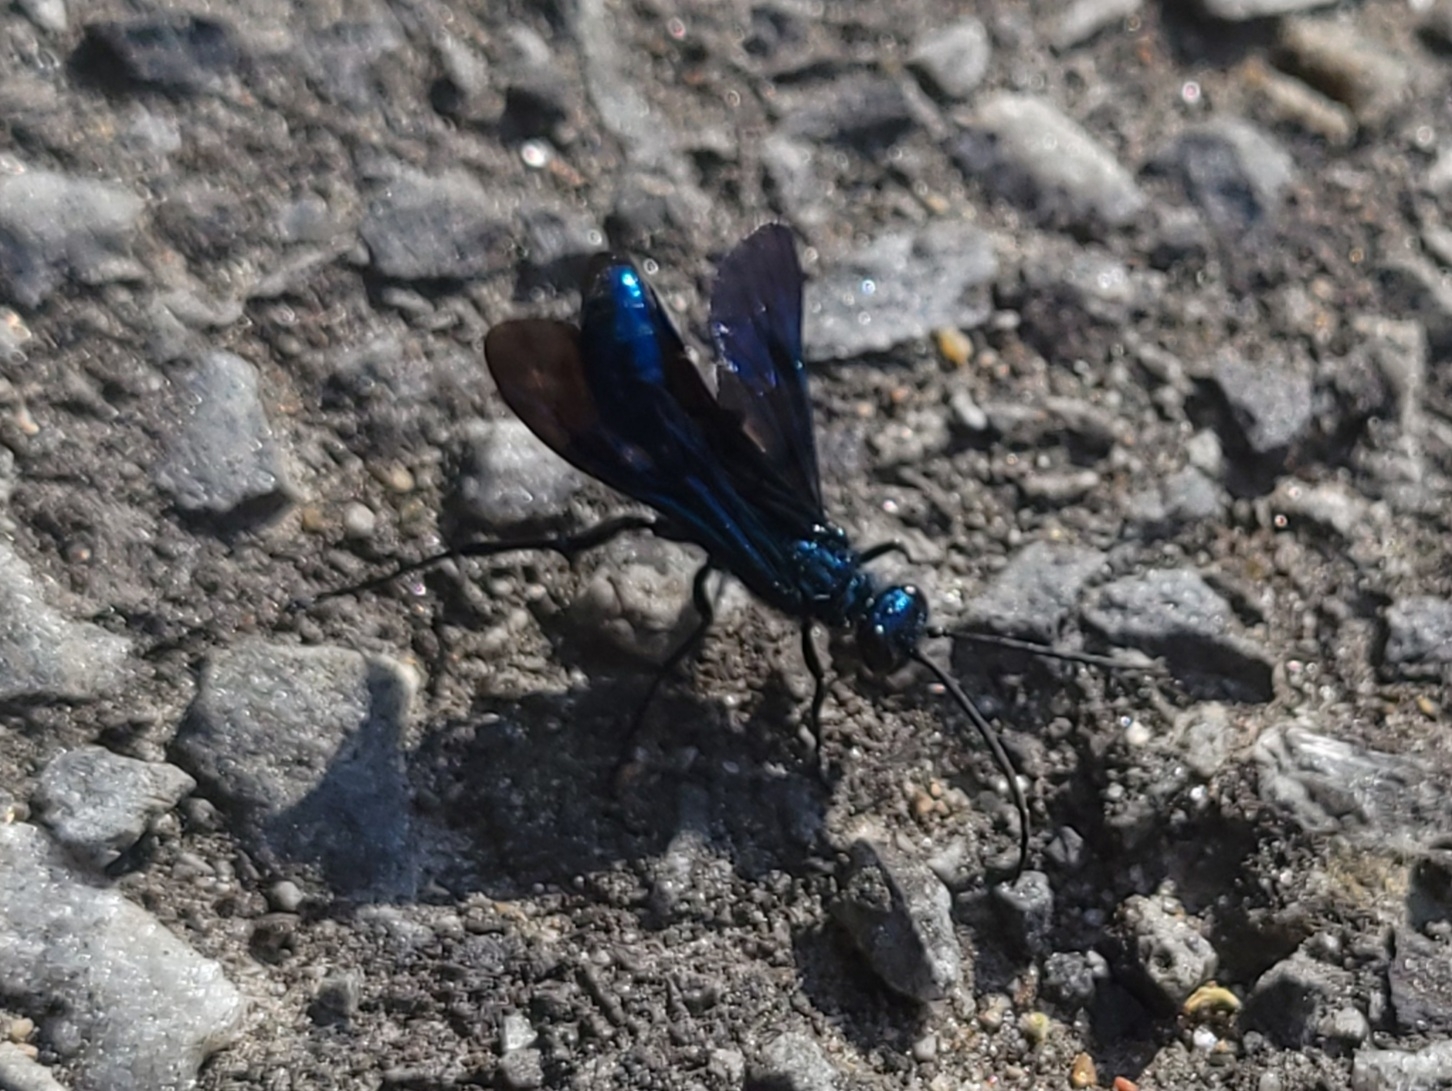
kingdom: Animalia
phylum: Arthropoda
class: Insecta
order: Hymenoptera
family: Sphecidae
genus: Chalybion
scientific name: Chalybion californicum
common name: Mud dauber
